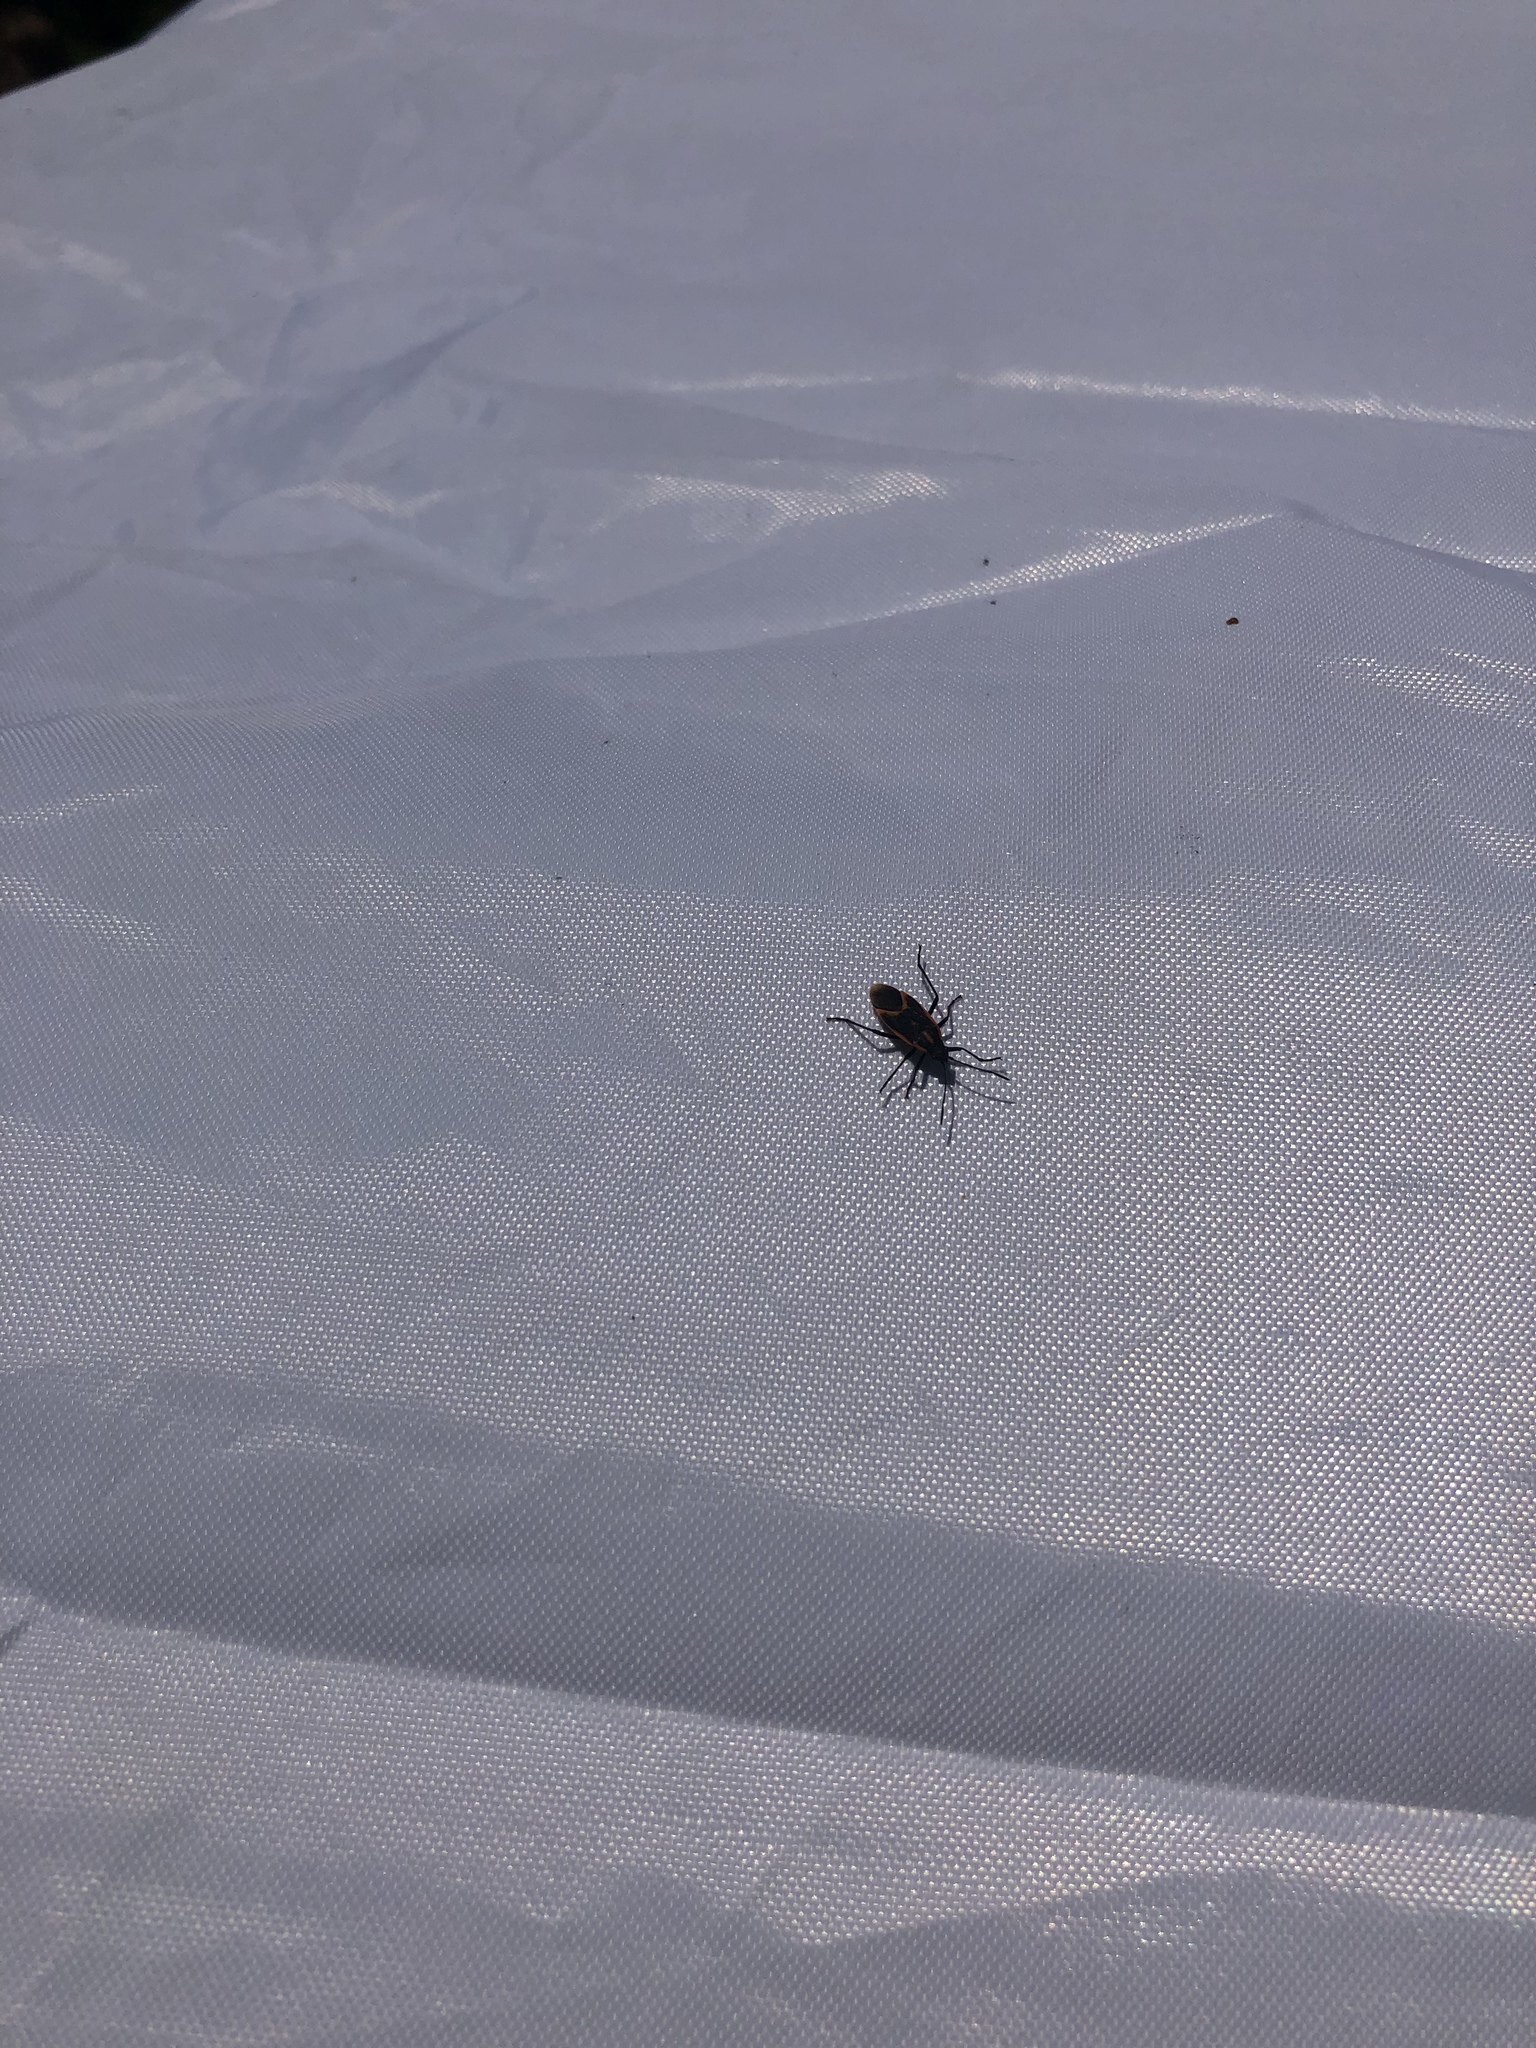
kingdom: Animalia
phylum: Arthropoda
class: Insecta
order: Hemiptera
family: Rhopalidae
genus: Boisea
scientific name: Boisea trivittata
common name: Boxelder bug
